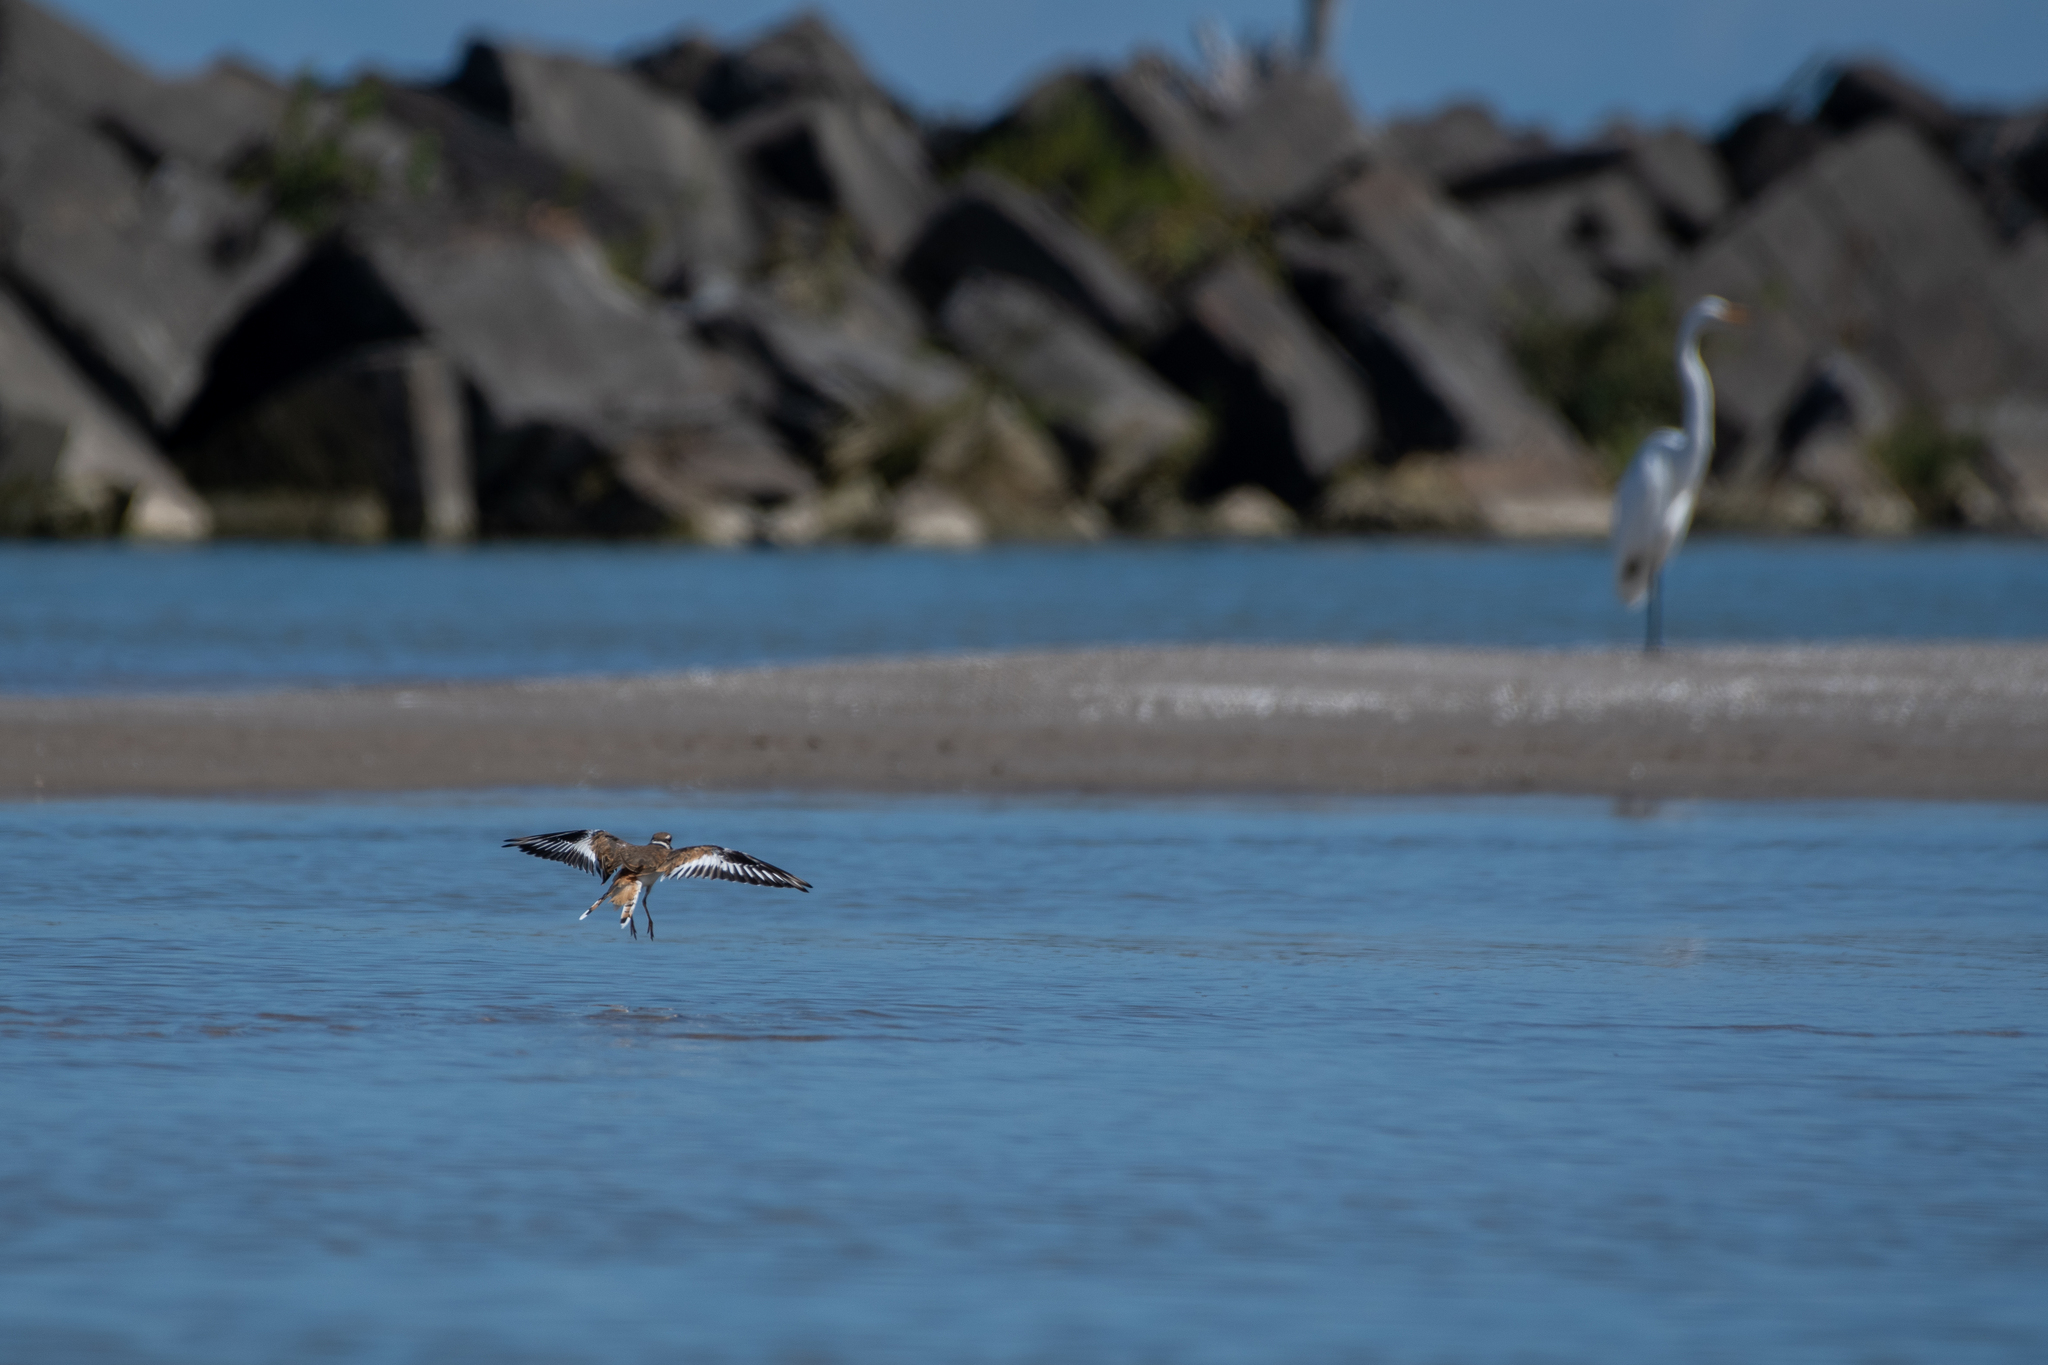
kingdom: Animalia
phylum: Chordata
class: Aves
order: Charadriiformes
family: Charadriidae
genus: Charadrius
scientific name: Charadrius vociferus
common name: Killdeer
